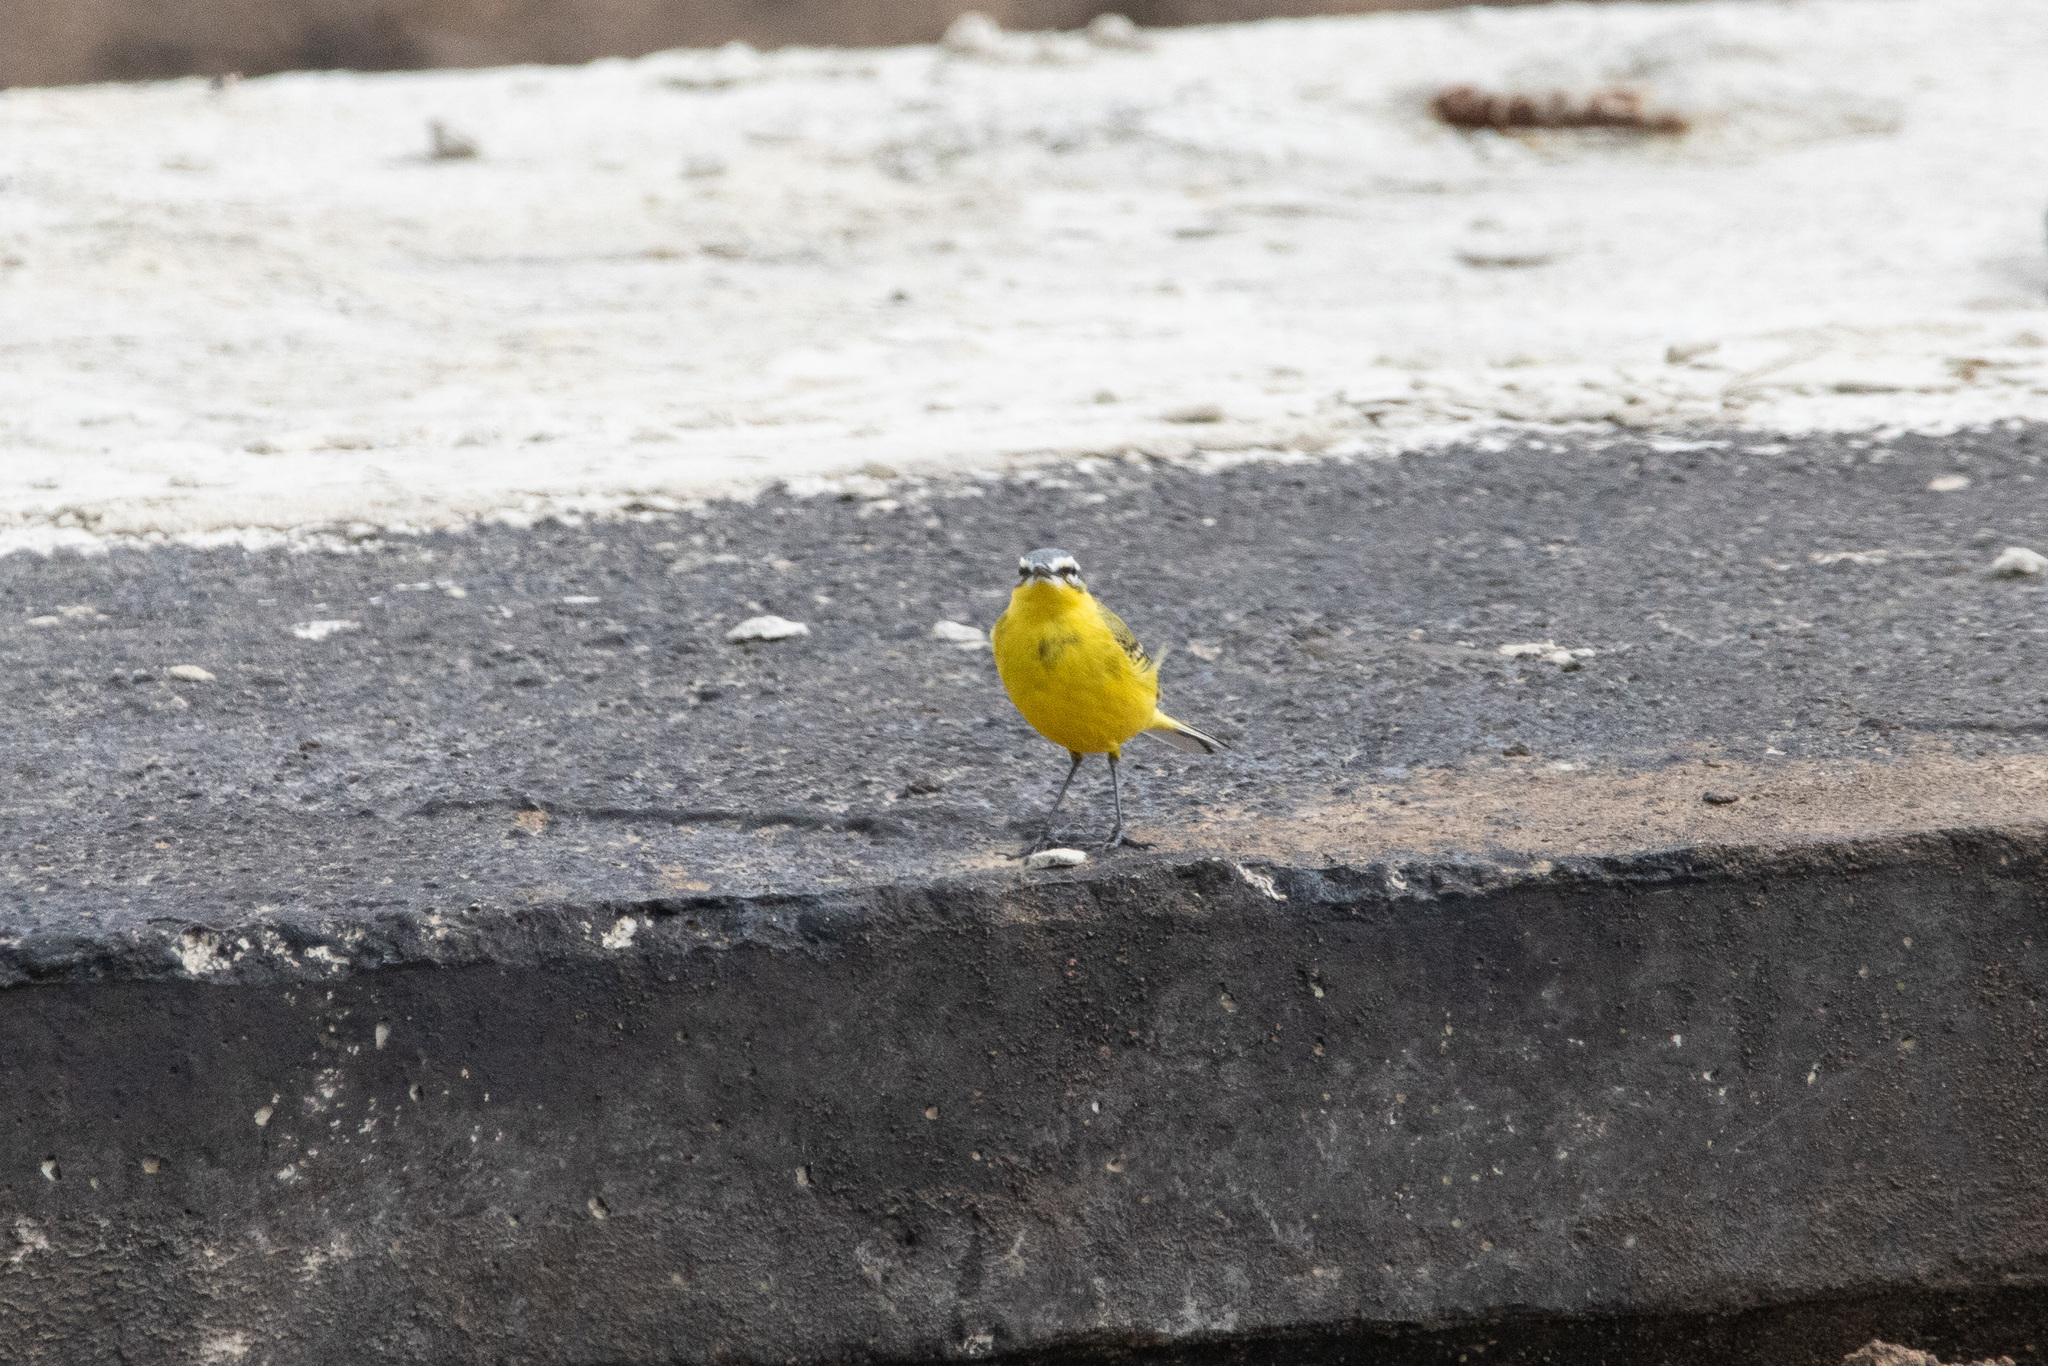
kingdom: Animalia
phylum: Chordata
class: Aves
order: Passeriformes
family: Motacillidae
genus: Motacilla
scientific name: Motacilla flava
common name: Western yellow wagtail
